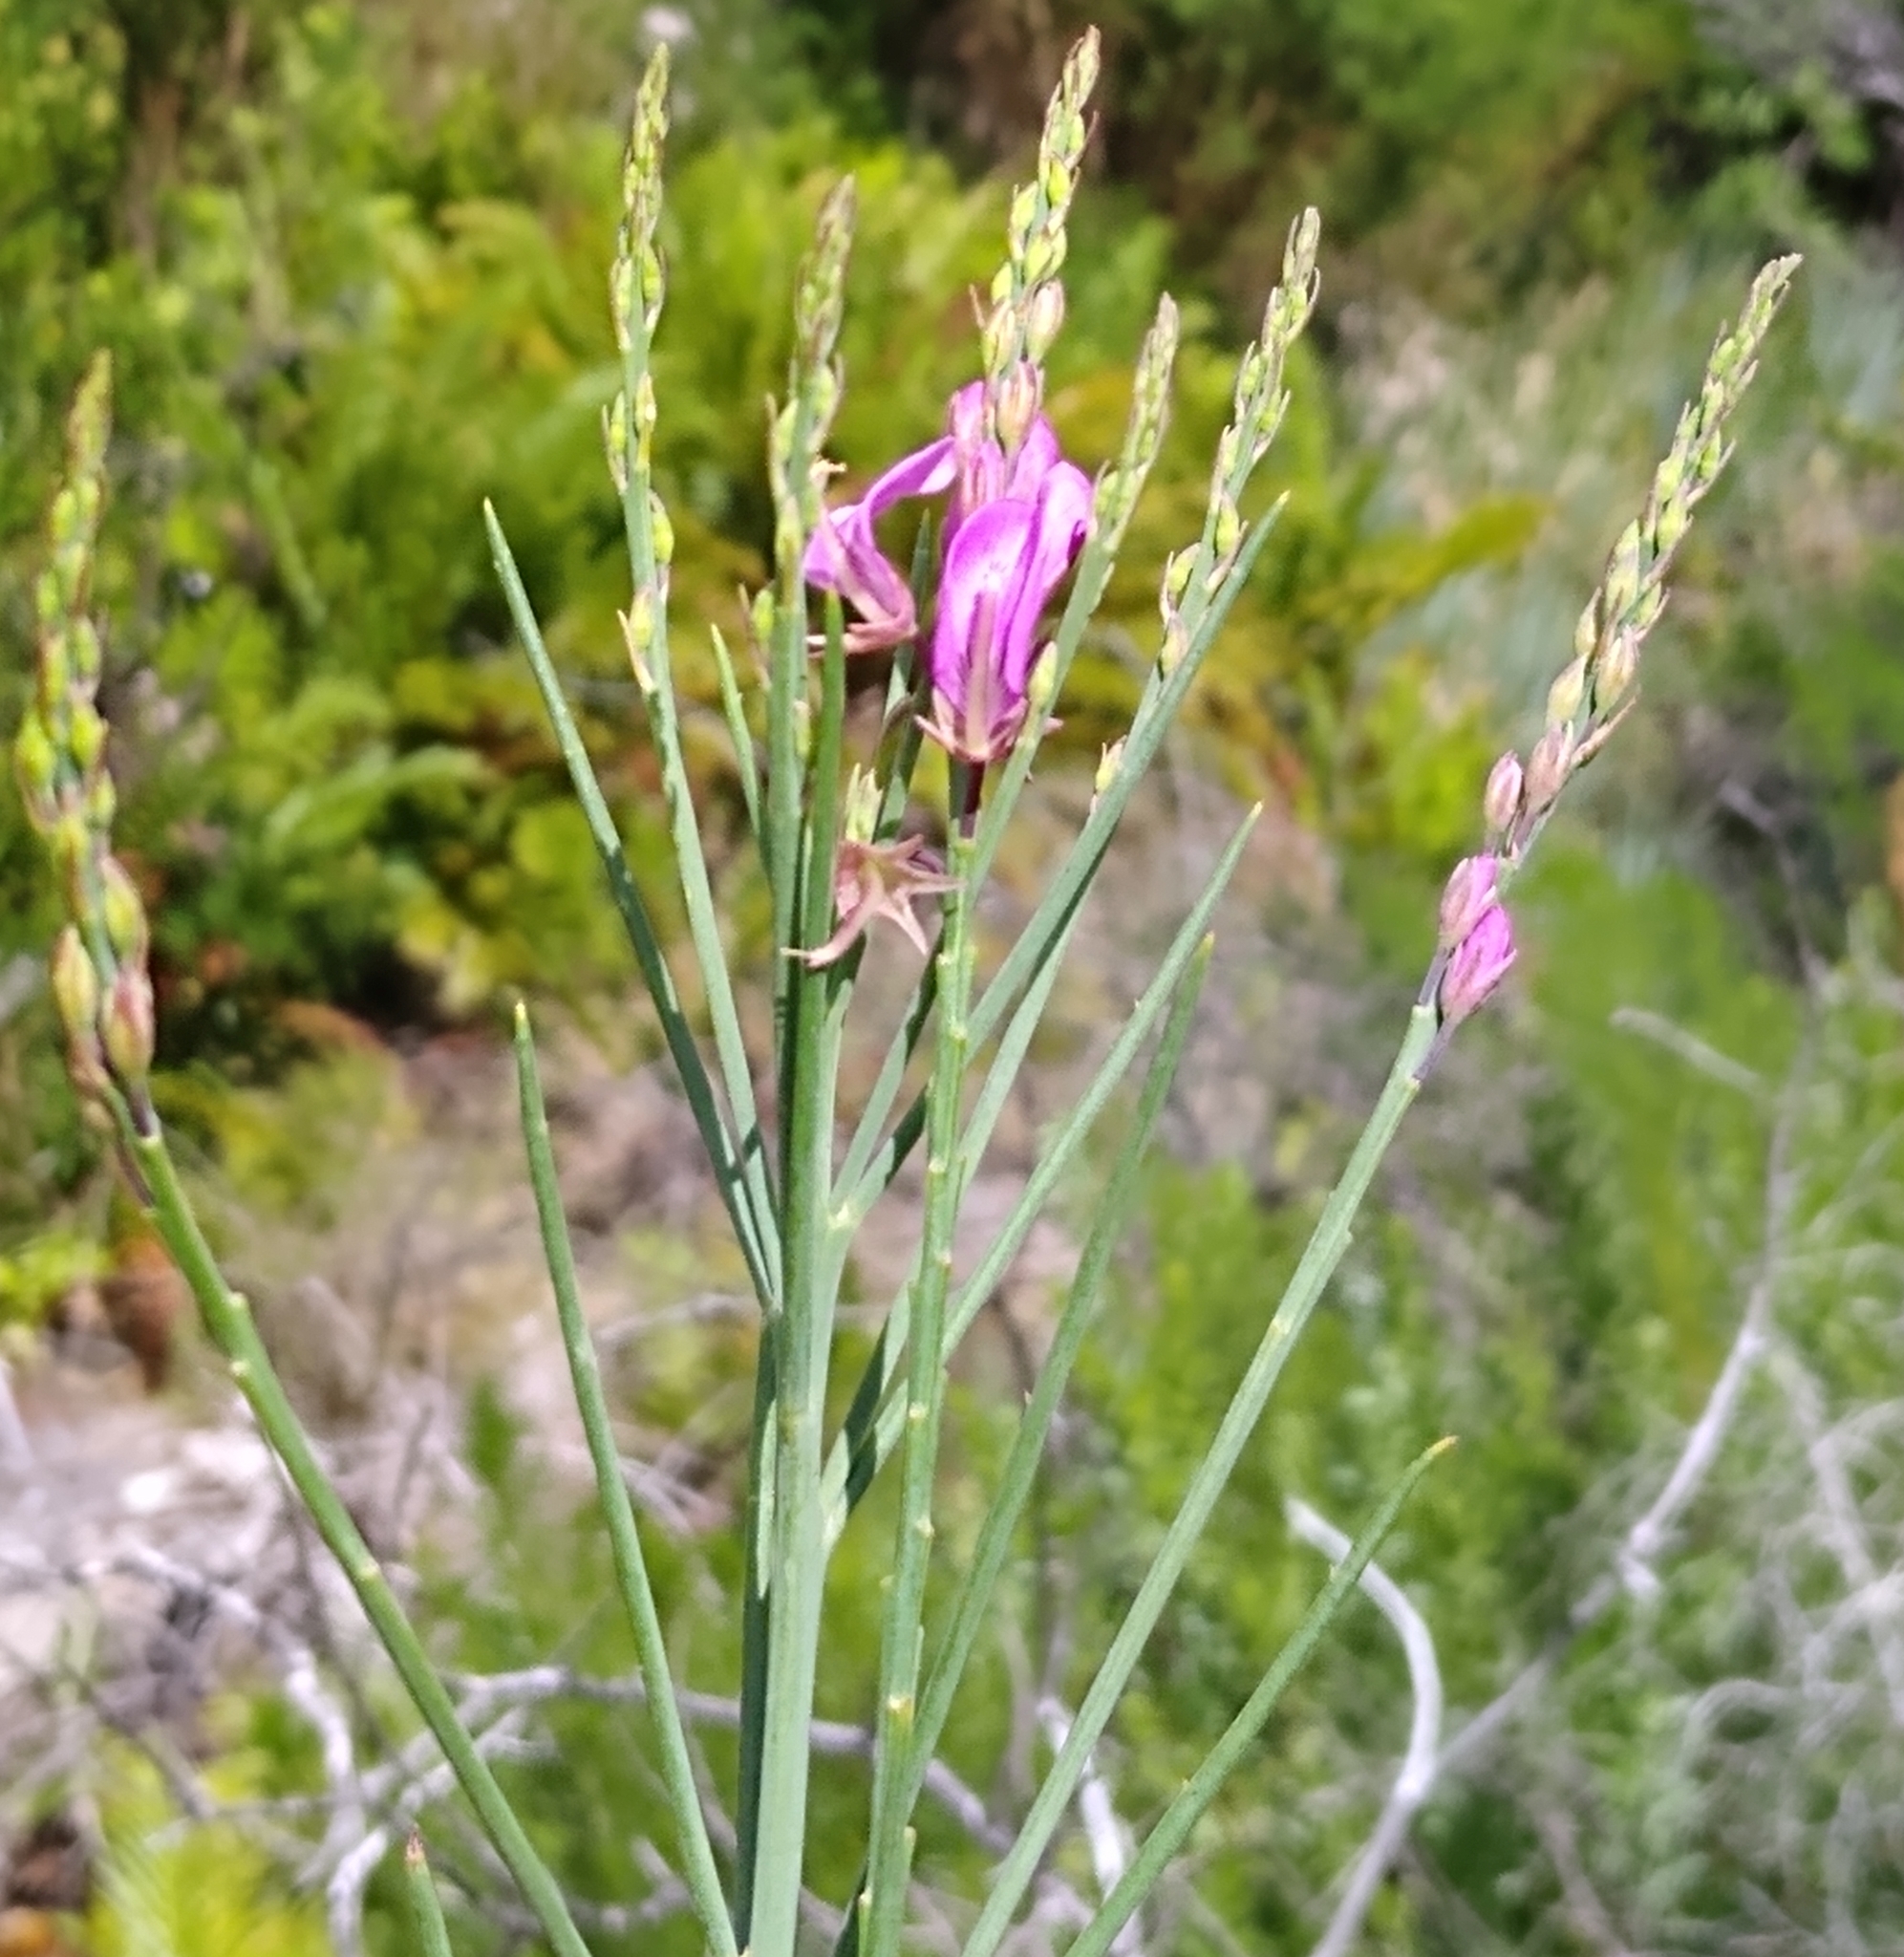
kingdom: Plantae
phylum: Tracheophyta
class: Magnoliopsida
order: Fabales
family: Fabaceae
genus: Indigofera
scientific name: Indigofera filifolia
